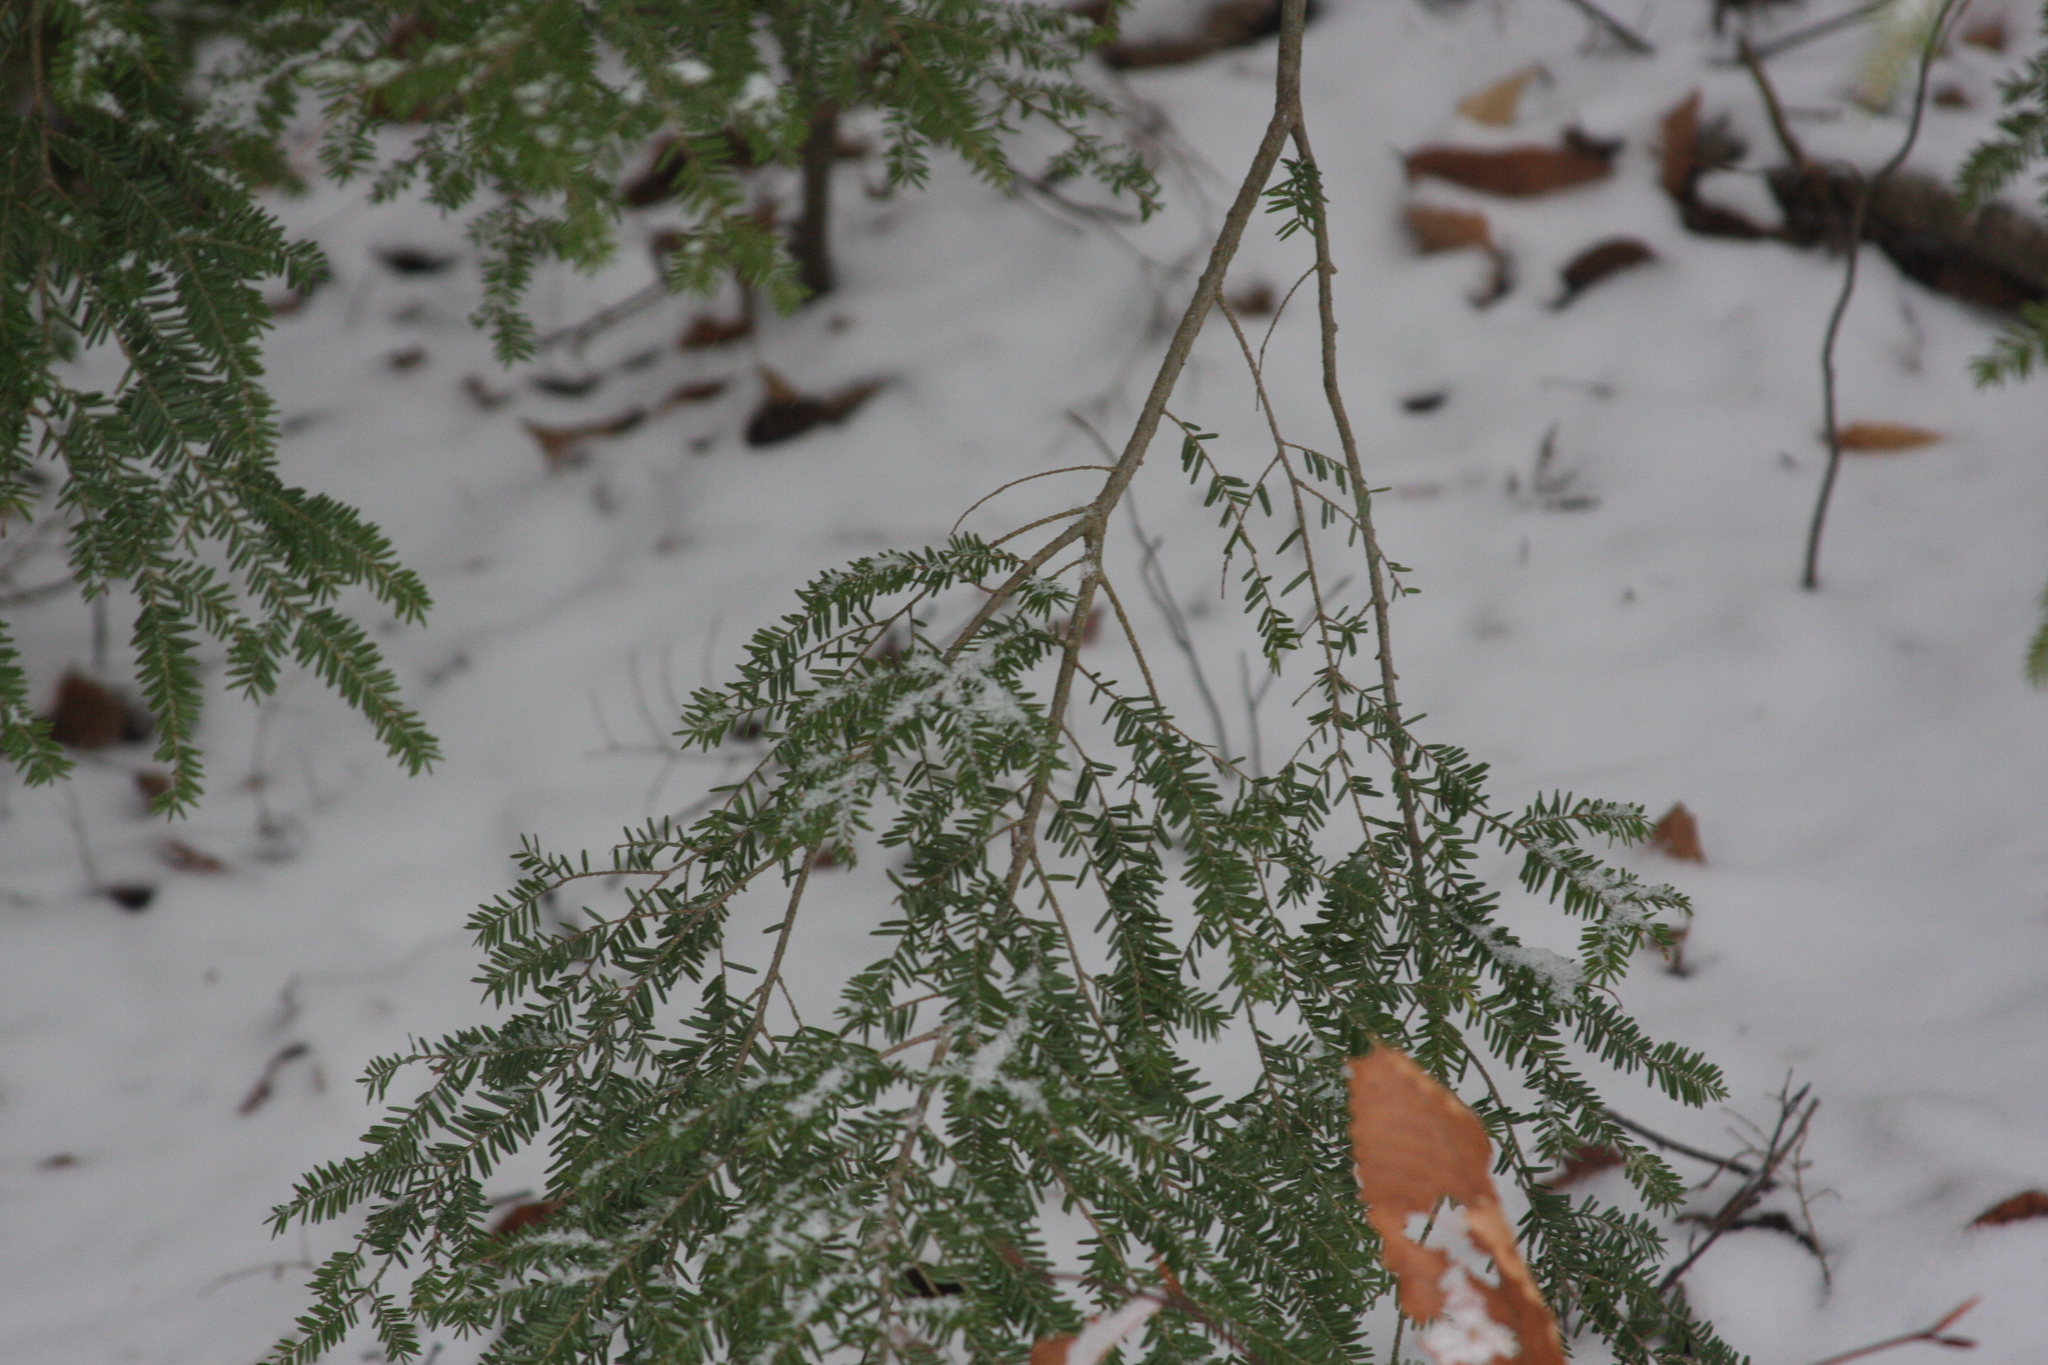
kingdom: Plantae
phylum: Tracheophyta
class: Pinopsida
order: Pinales
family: Pinaceae
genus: Tsuga
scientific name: Tsuga canadensis
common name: Eastern hemlock
